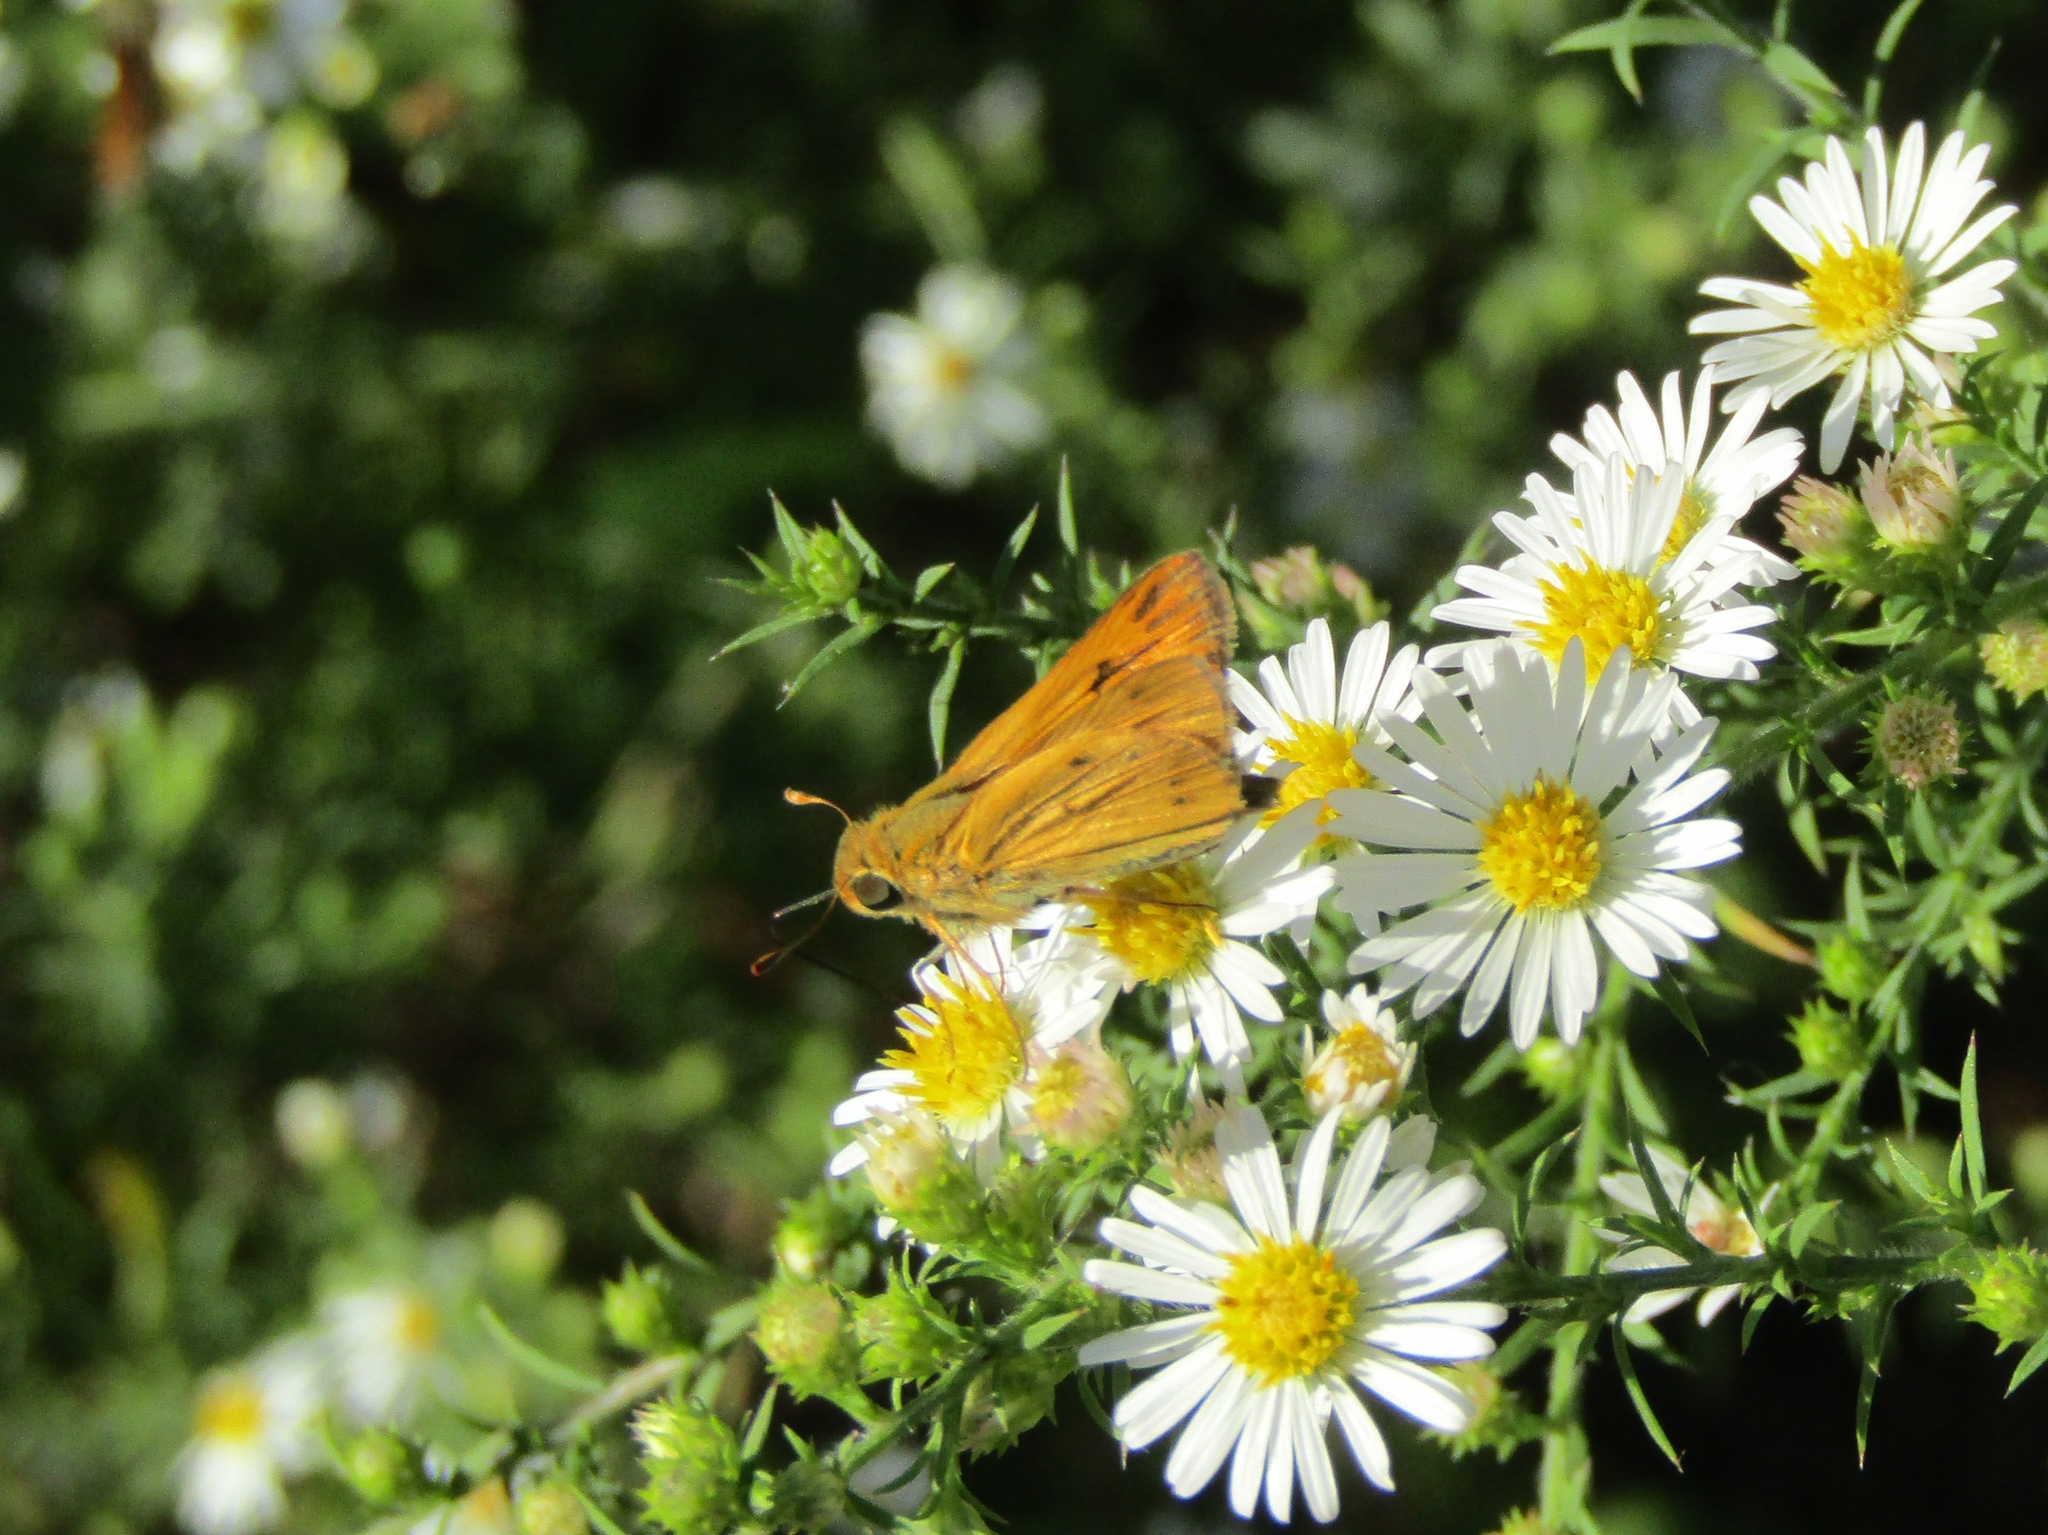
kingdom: Animalia
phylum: Arthropoda
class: Insecta
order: Lepidoptera
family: Hesperiidae
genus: Hylephila
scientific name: Hylephila phyleus
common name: Fiery skipper
